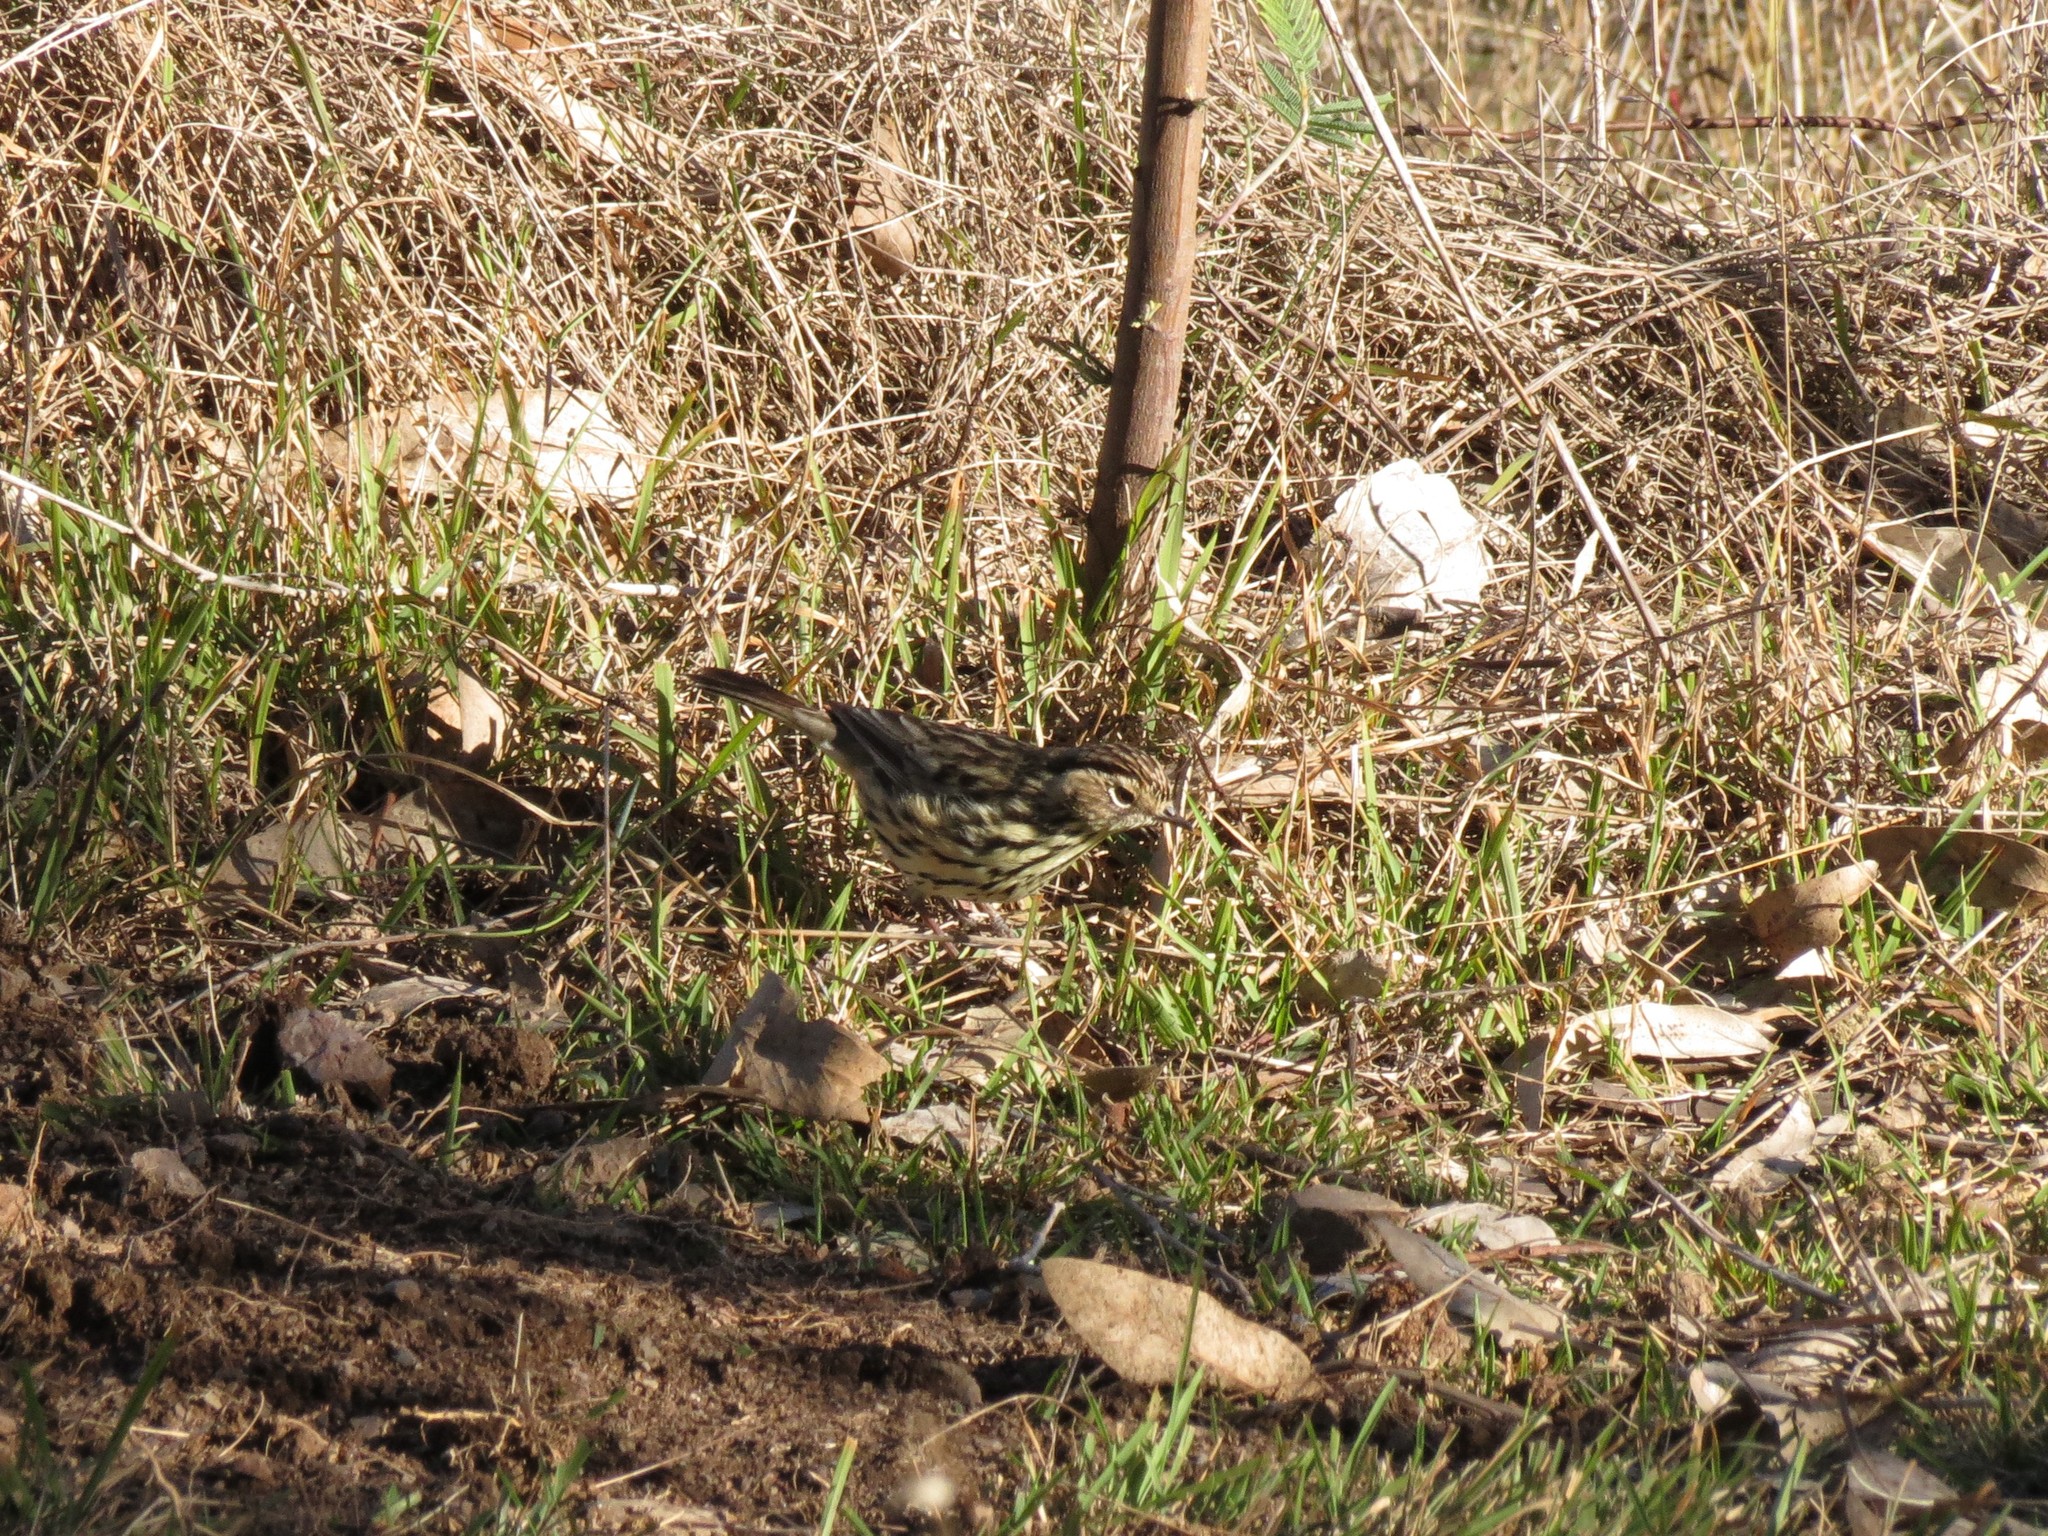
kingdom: Animalia
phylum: Chordata
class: Aves
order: Passeriformes
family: Acanthizidae
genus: Pyrrholaemus
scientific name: Pyrrholaemus sagittatus
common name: Speckled warbler
